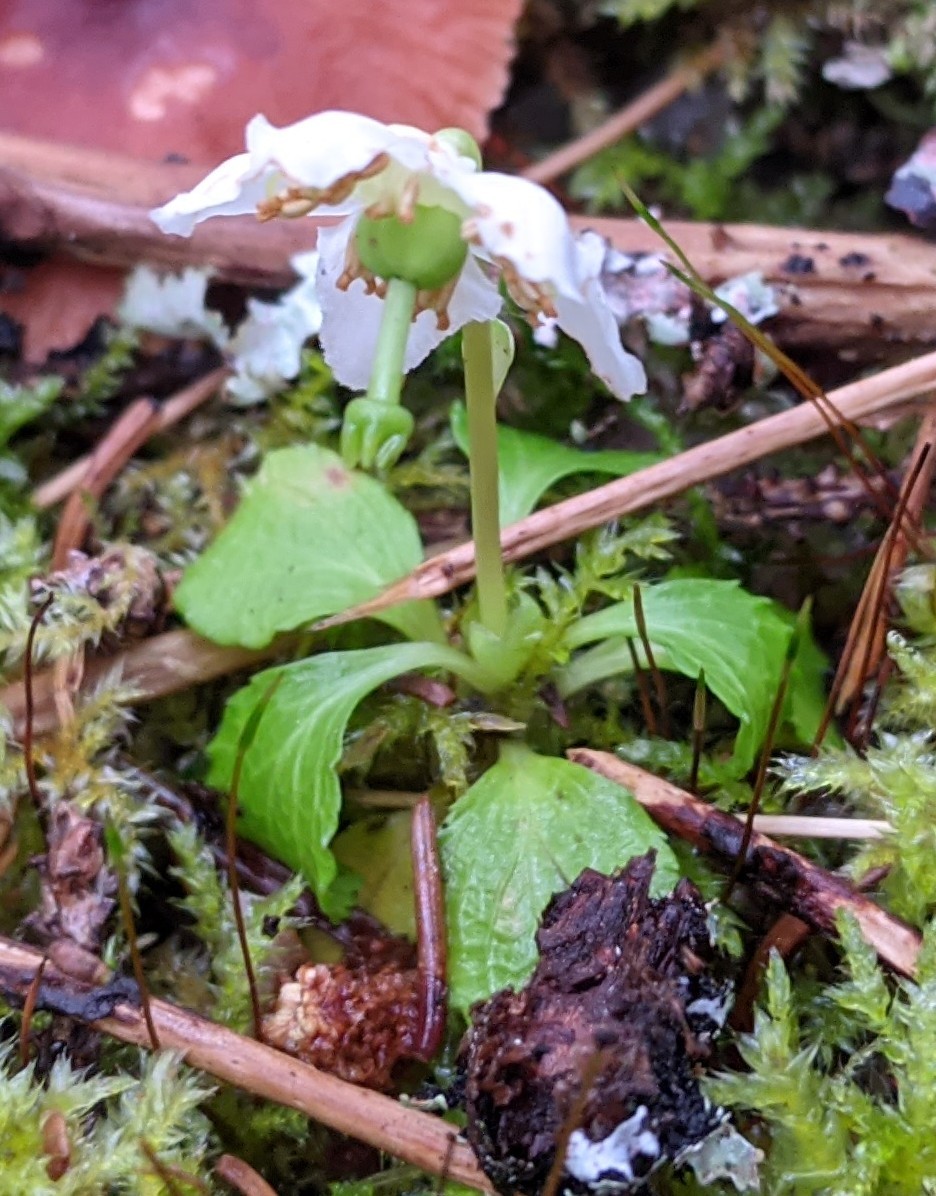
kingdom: Plantae
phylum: Tracheophyta
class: Magnoliopsida
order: Ericales
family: Ericaceae
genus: Moneses
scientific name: Moneses uniflora
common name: One-flowered wintergreen
